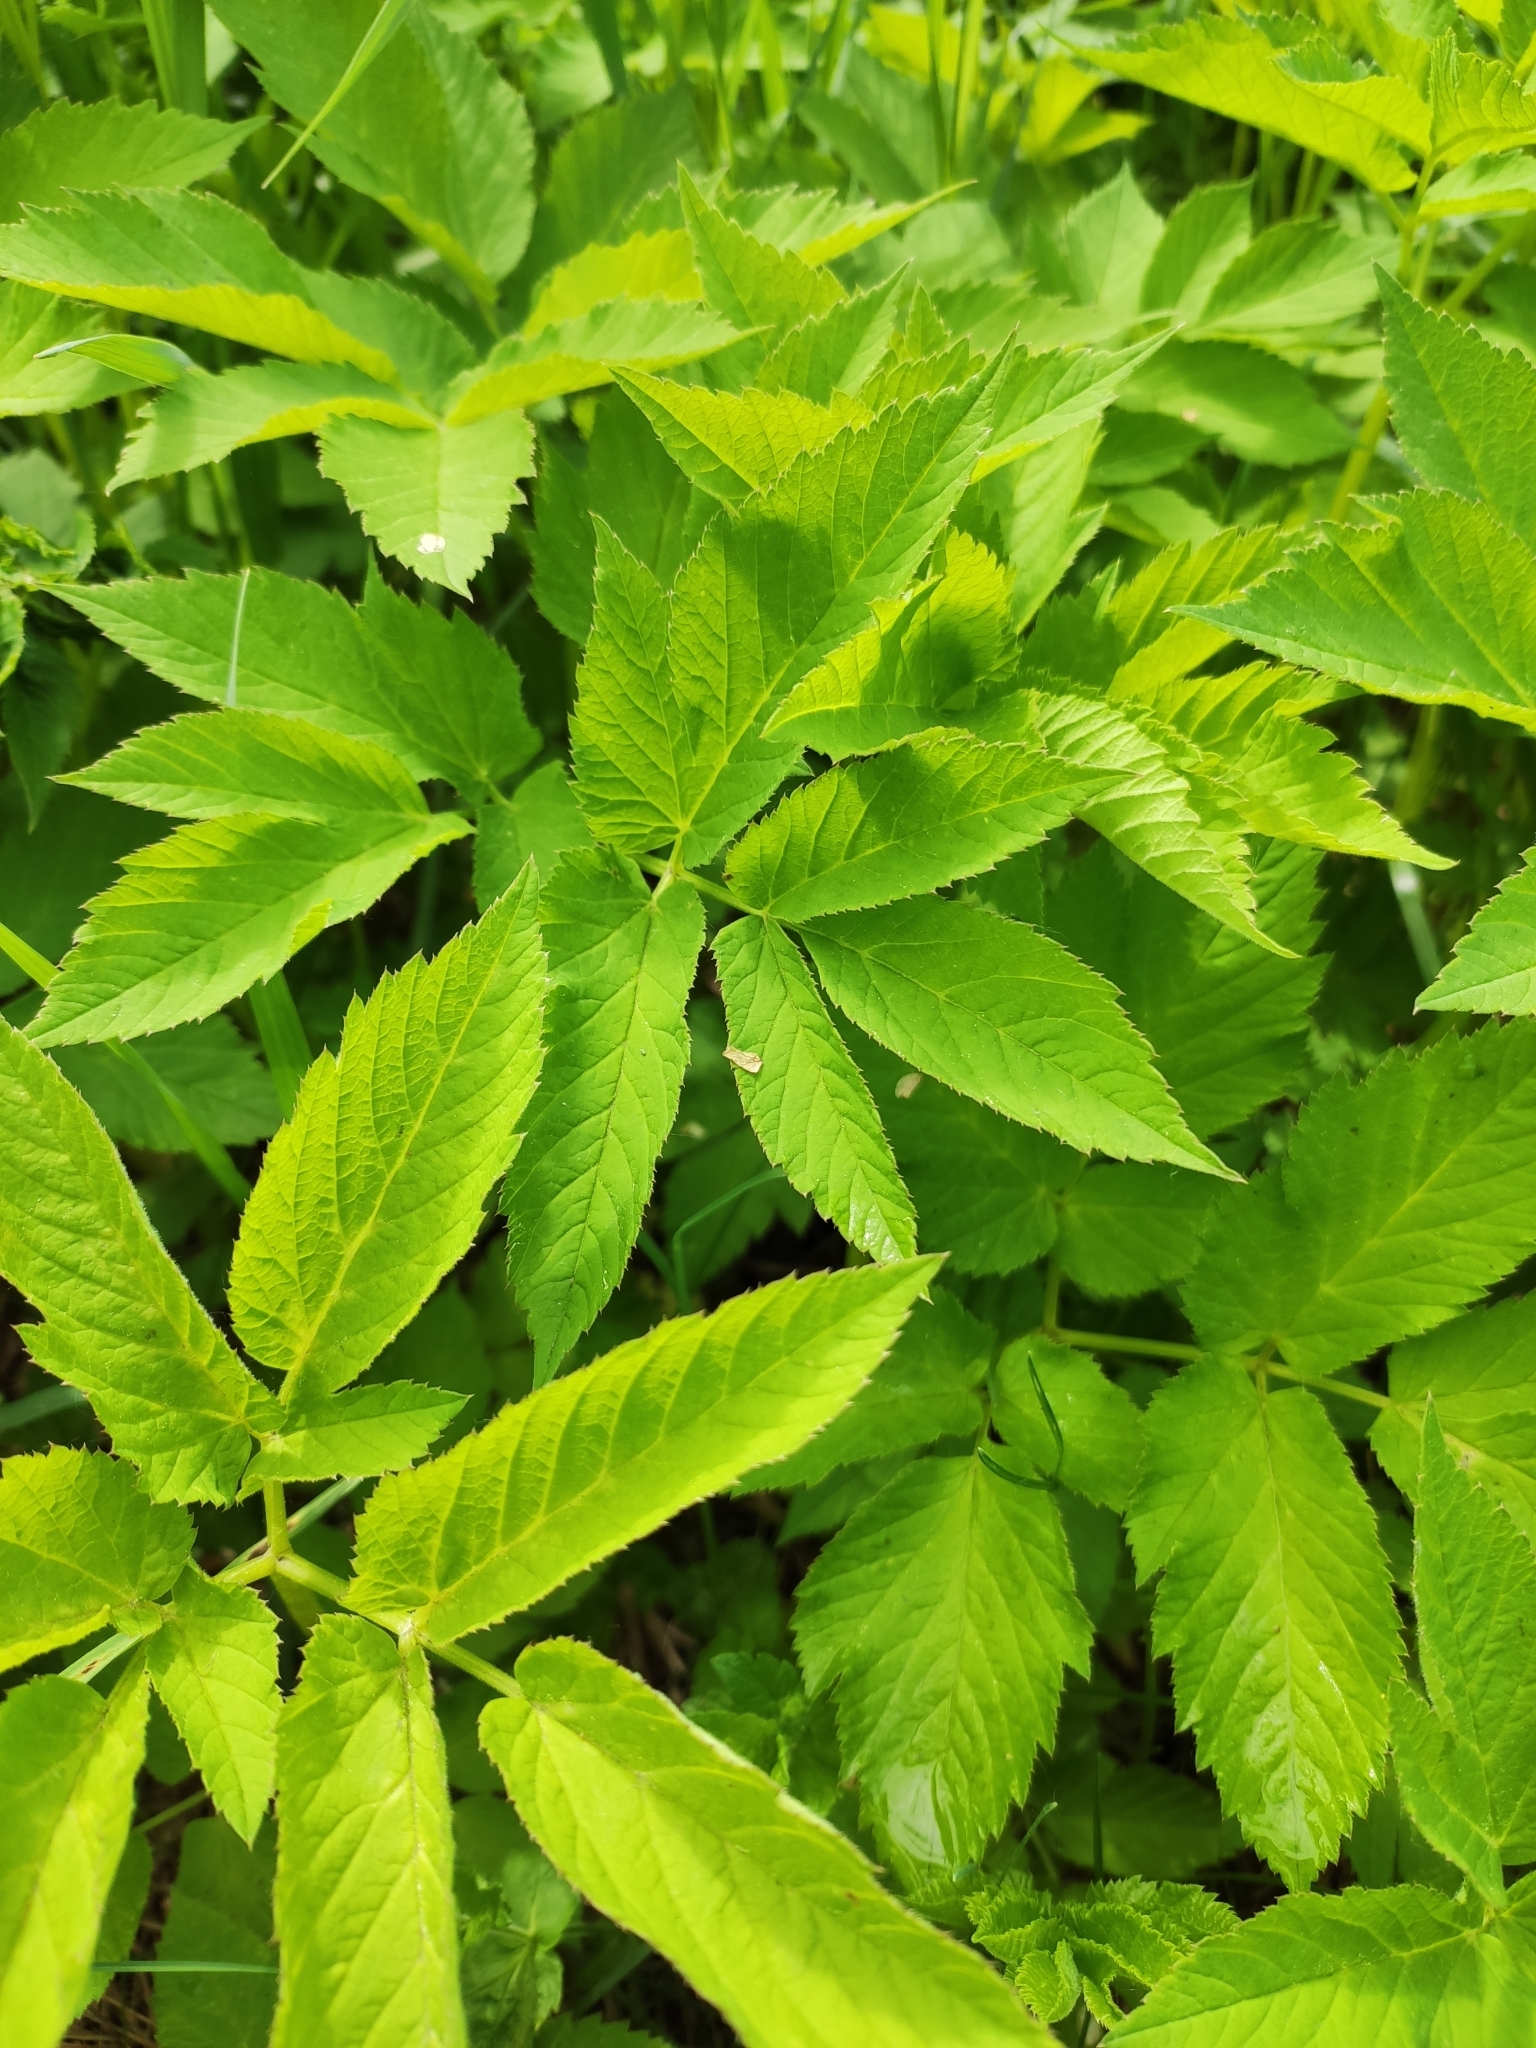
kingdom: Plantae
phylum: Tracheophyta
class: Magnoliopsida
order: Apiales
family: Apiaceae
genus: Aegopodium
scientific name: Aegopodium podagraria
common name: Ground-elder
